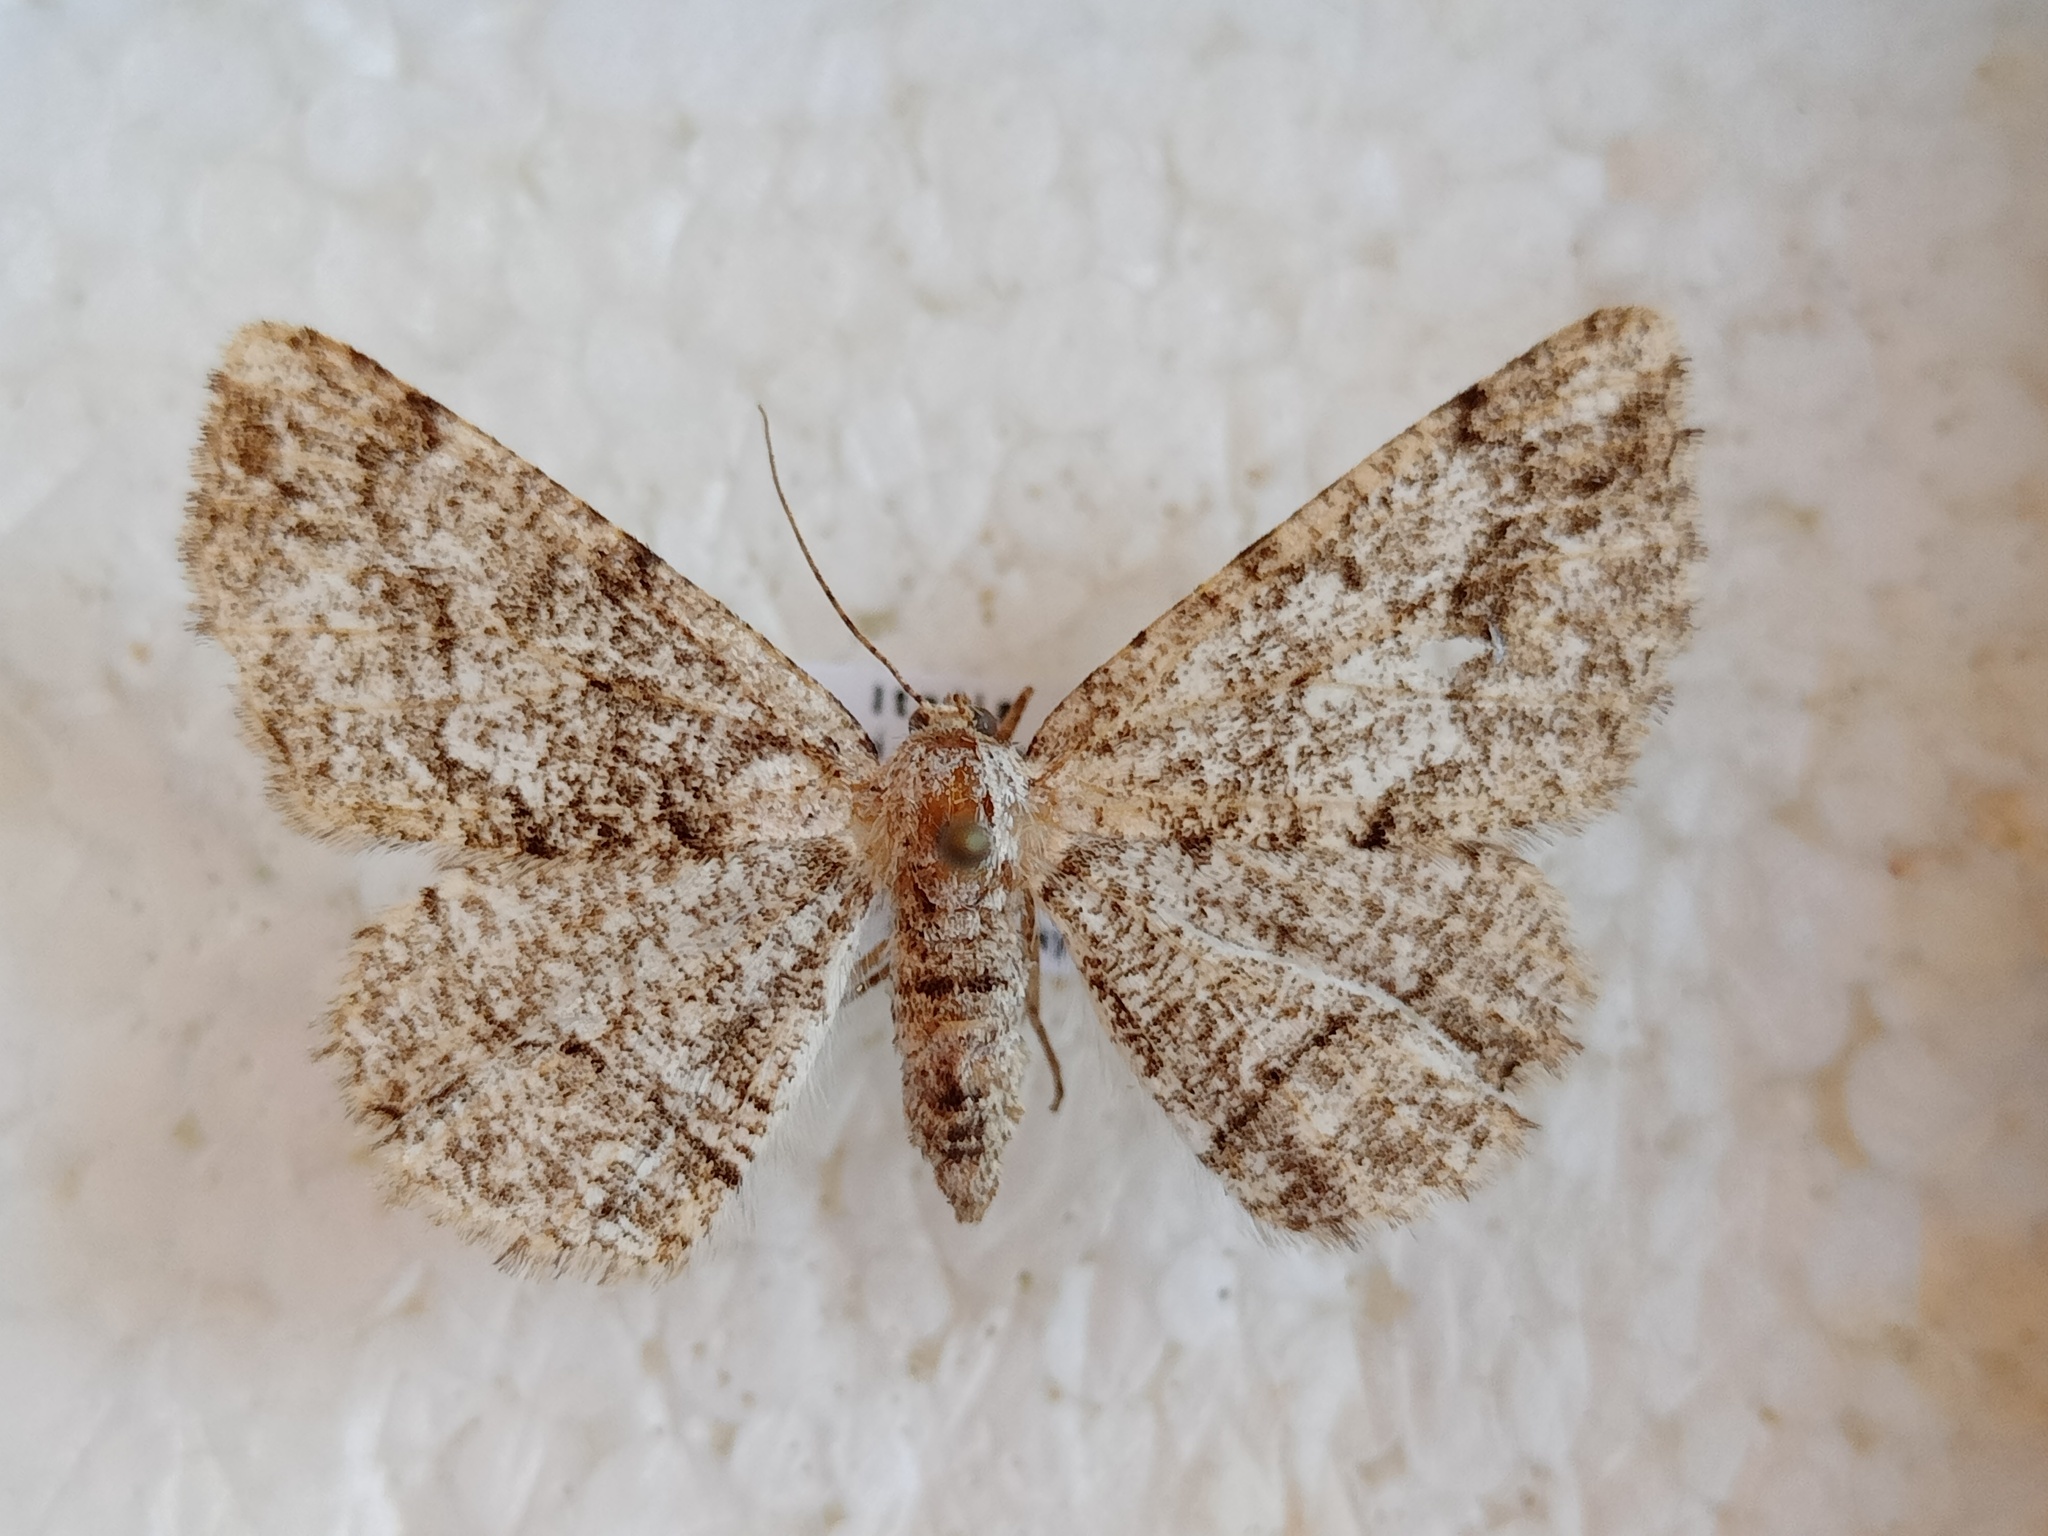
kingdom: Animalia
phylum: Arthropoda
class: Insecta
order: Lepidoptera
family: Geometridae
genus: Synopsia
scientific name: Synopsia sociaria
